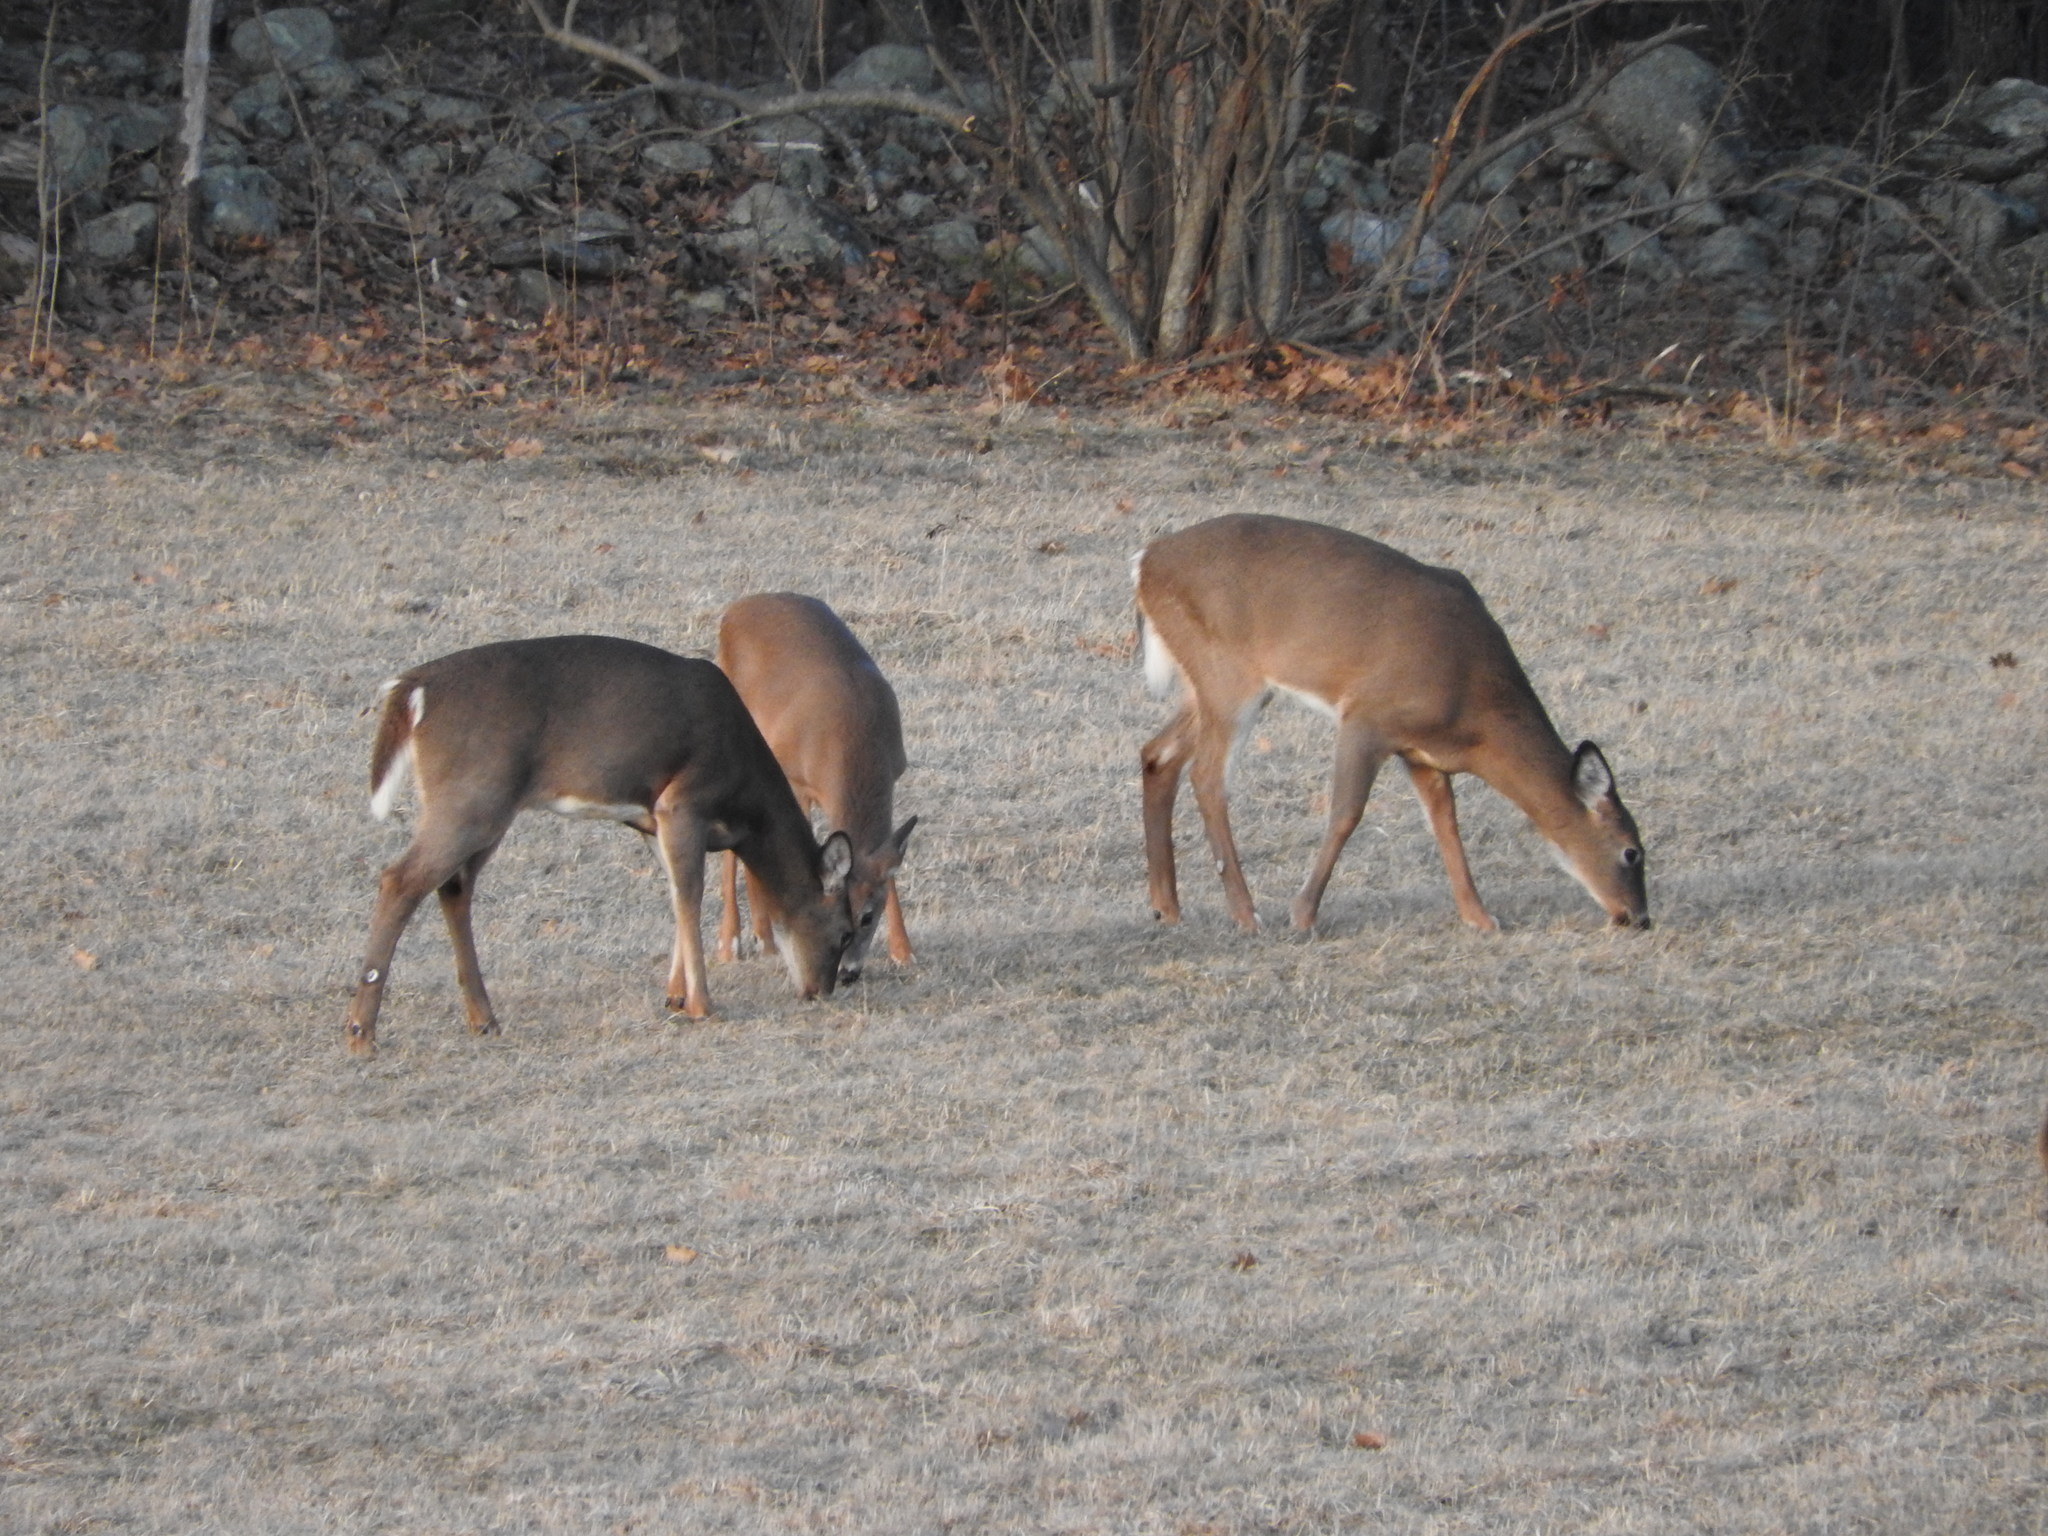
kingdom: Animalia
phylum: Chordata
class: Mammalia
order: Artiodactyla
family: Cervidae
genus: Odocoileus
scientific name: Odocoileus virginianus
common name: White-tailed deer
